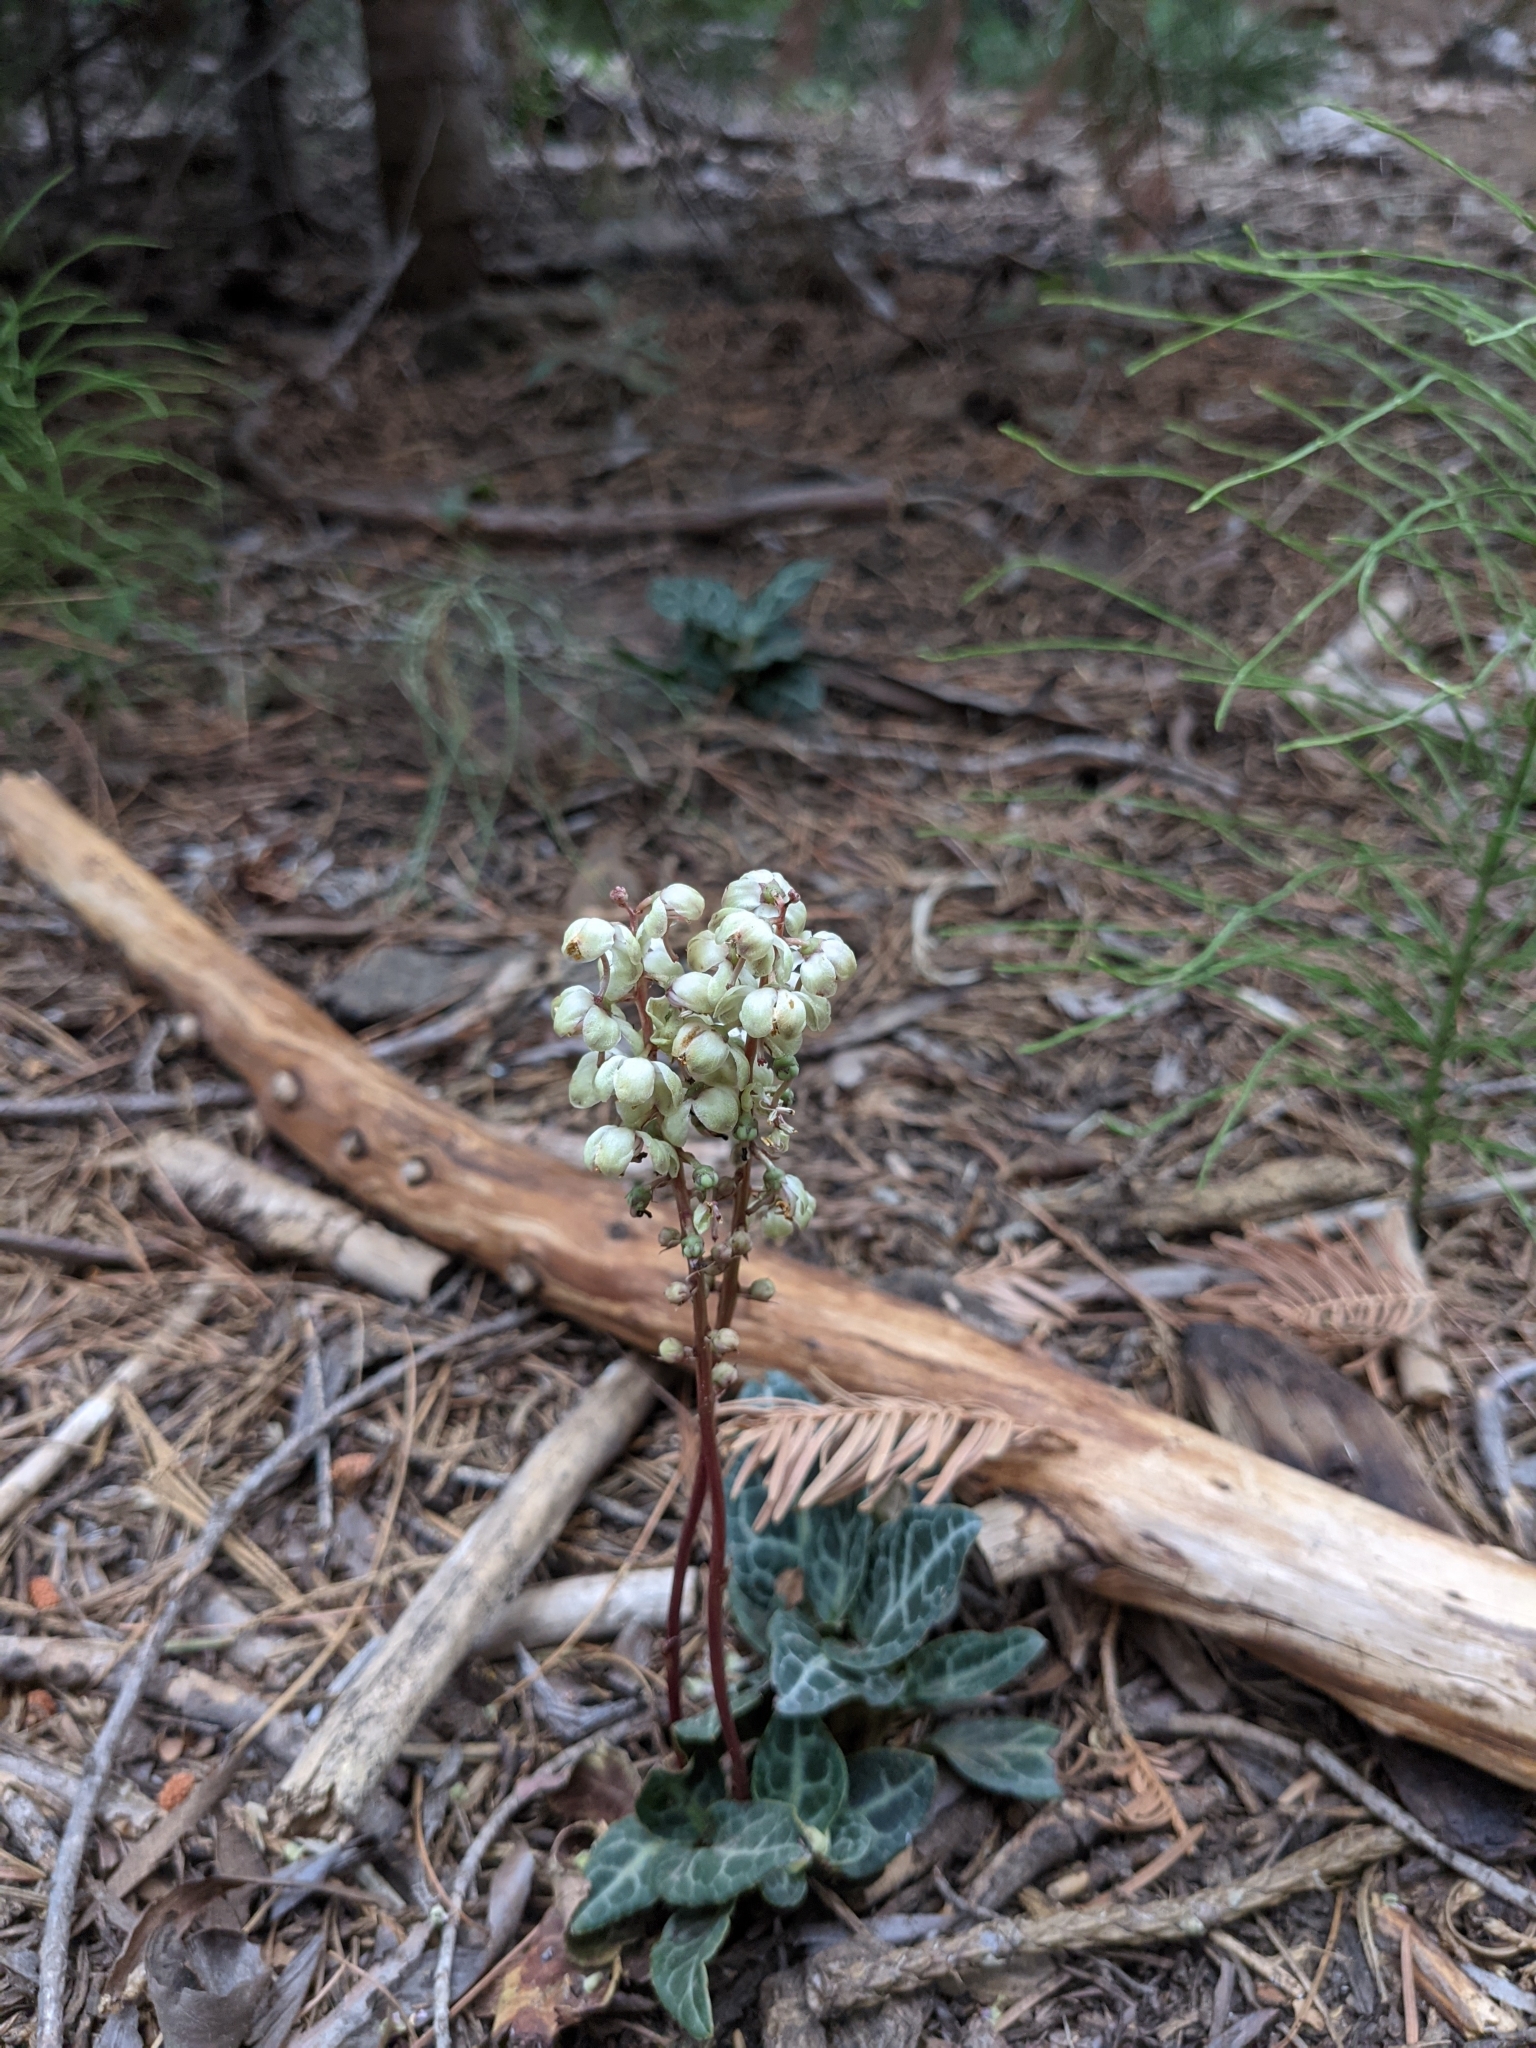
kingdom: Plantae
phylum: Tracheophyta
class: Magnoliopsida
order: Ericales
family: Ericaceae
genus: Pyrola
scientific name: Pyrola picta
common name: White-vein wintergreen
